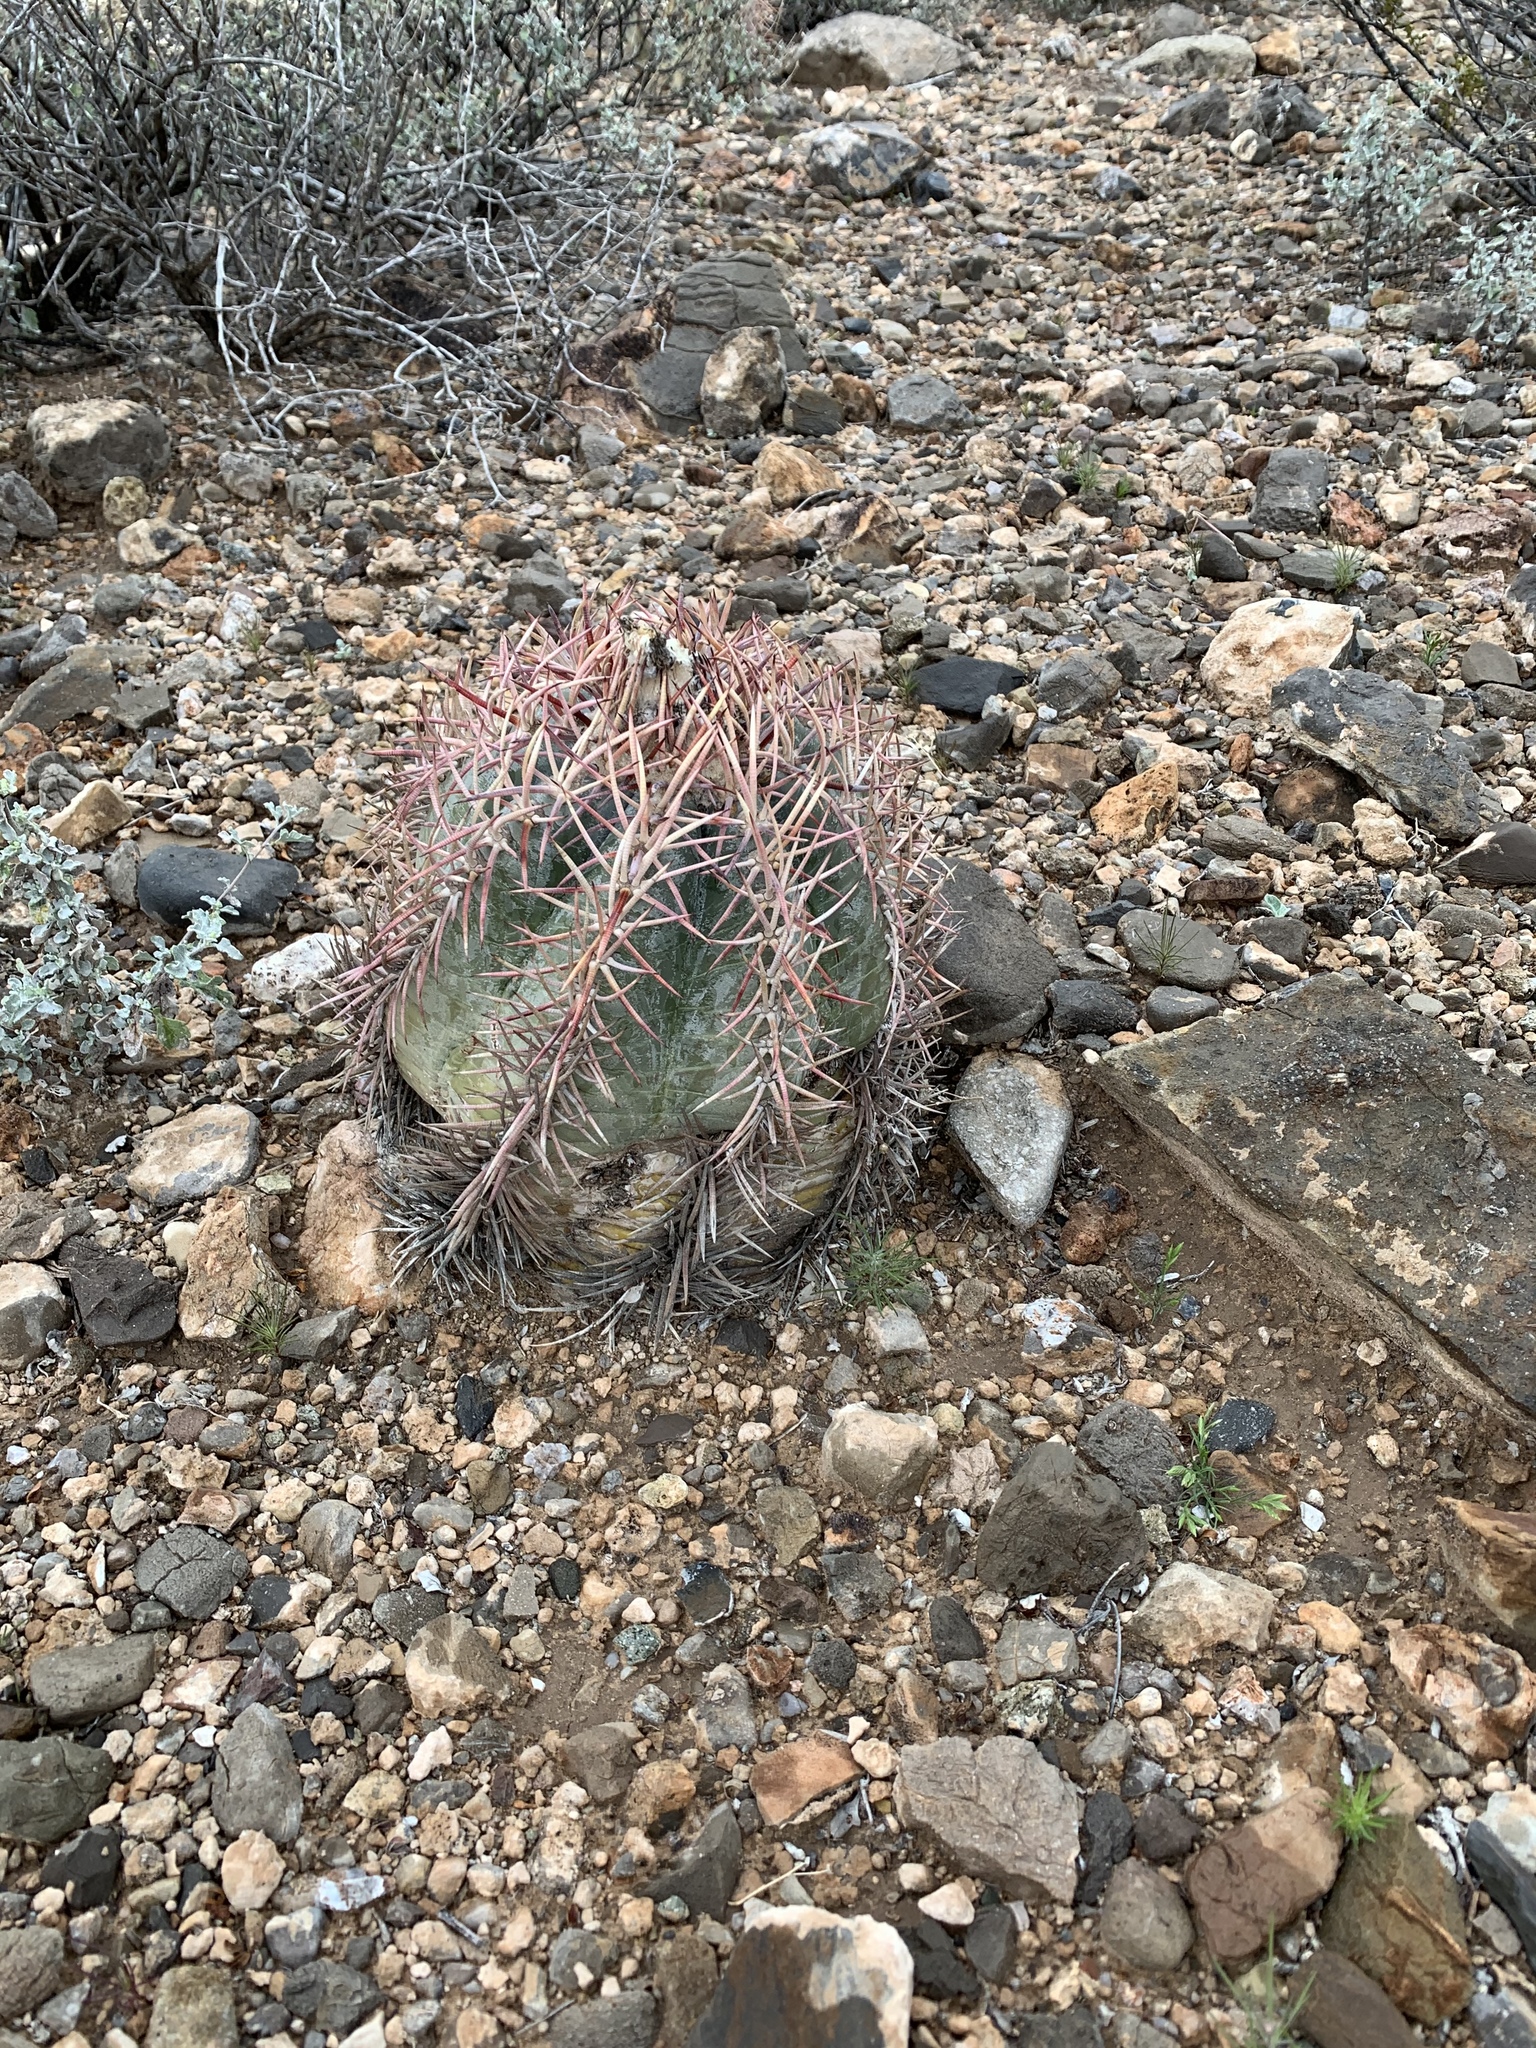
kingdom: Plantae
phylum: Tracheophyta
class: Magnoliopsida
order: Caryophyllales
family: Cactaceae
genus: Echinocactus
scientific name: Echinocactus horizonthalonius
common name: Devilshead
